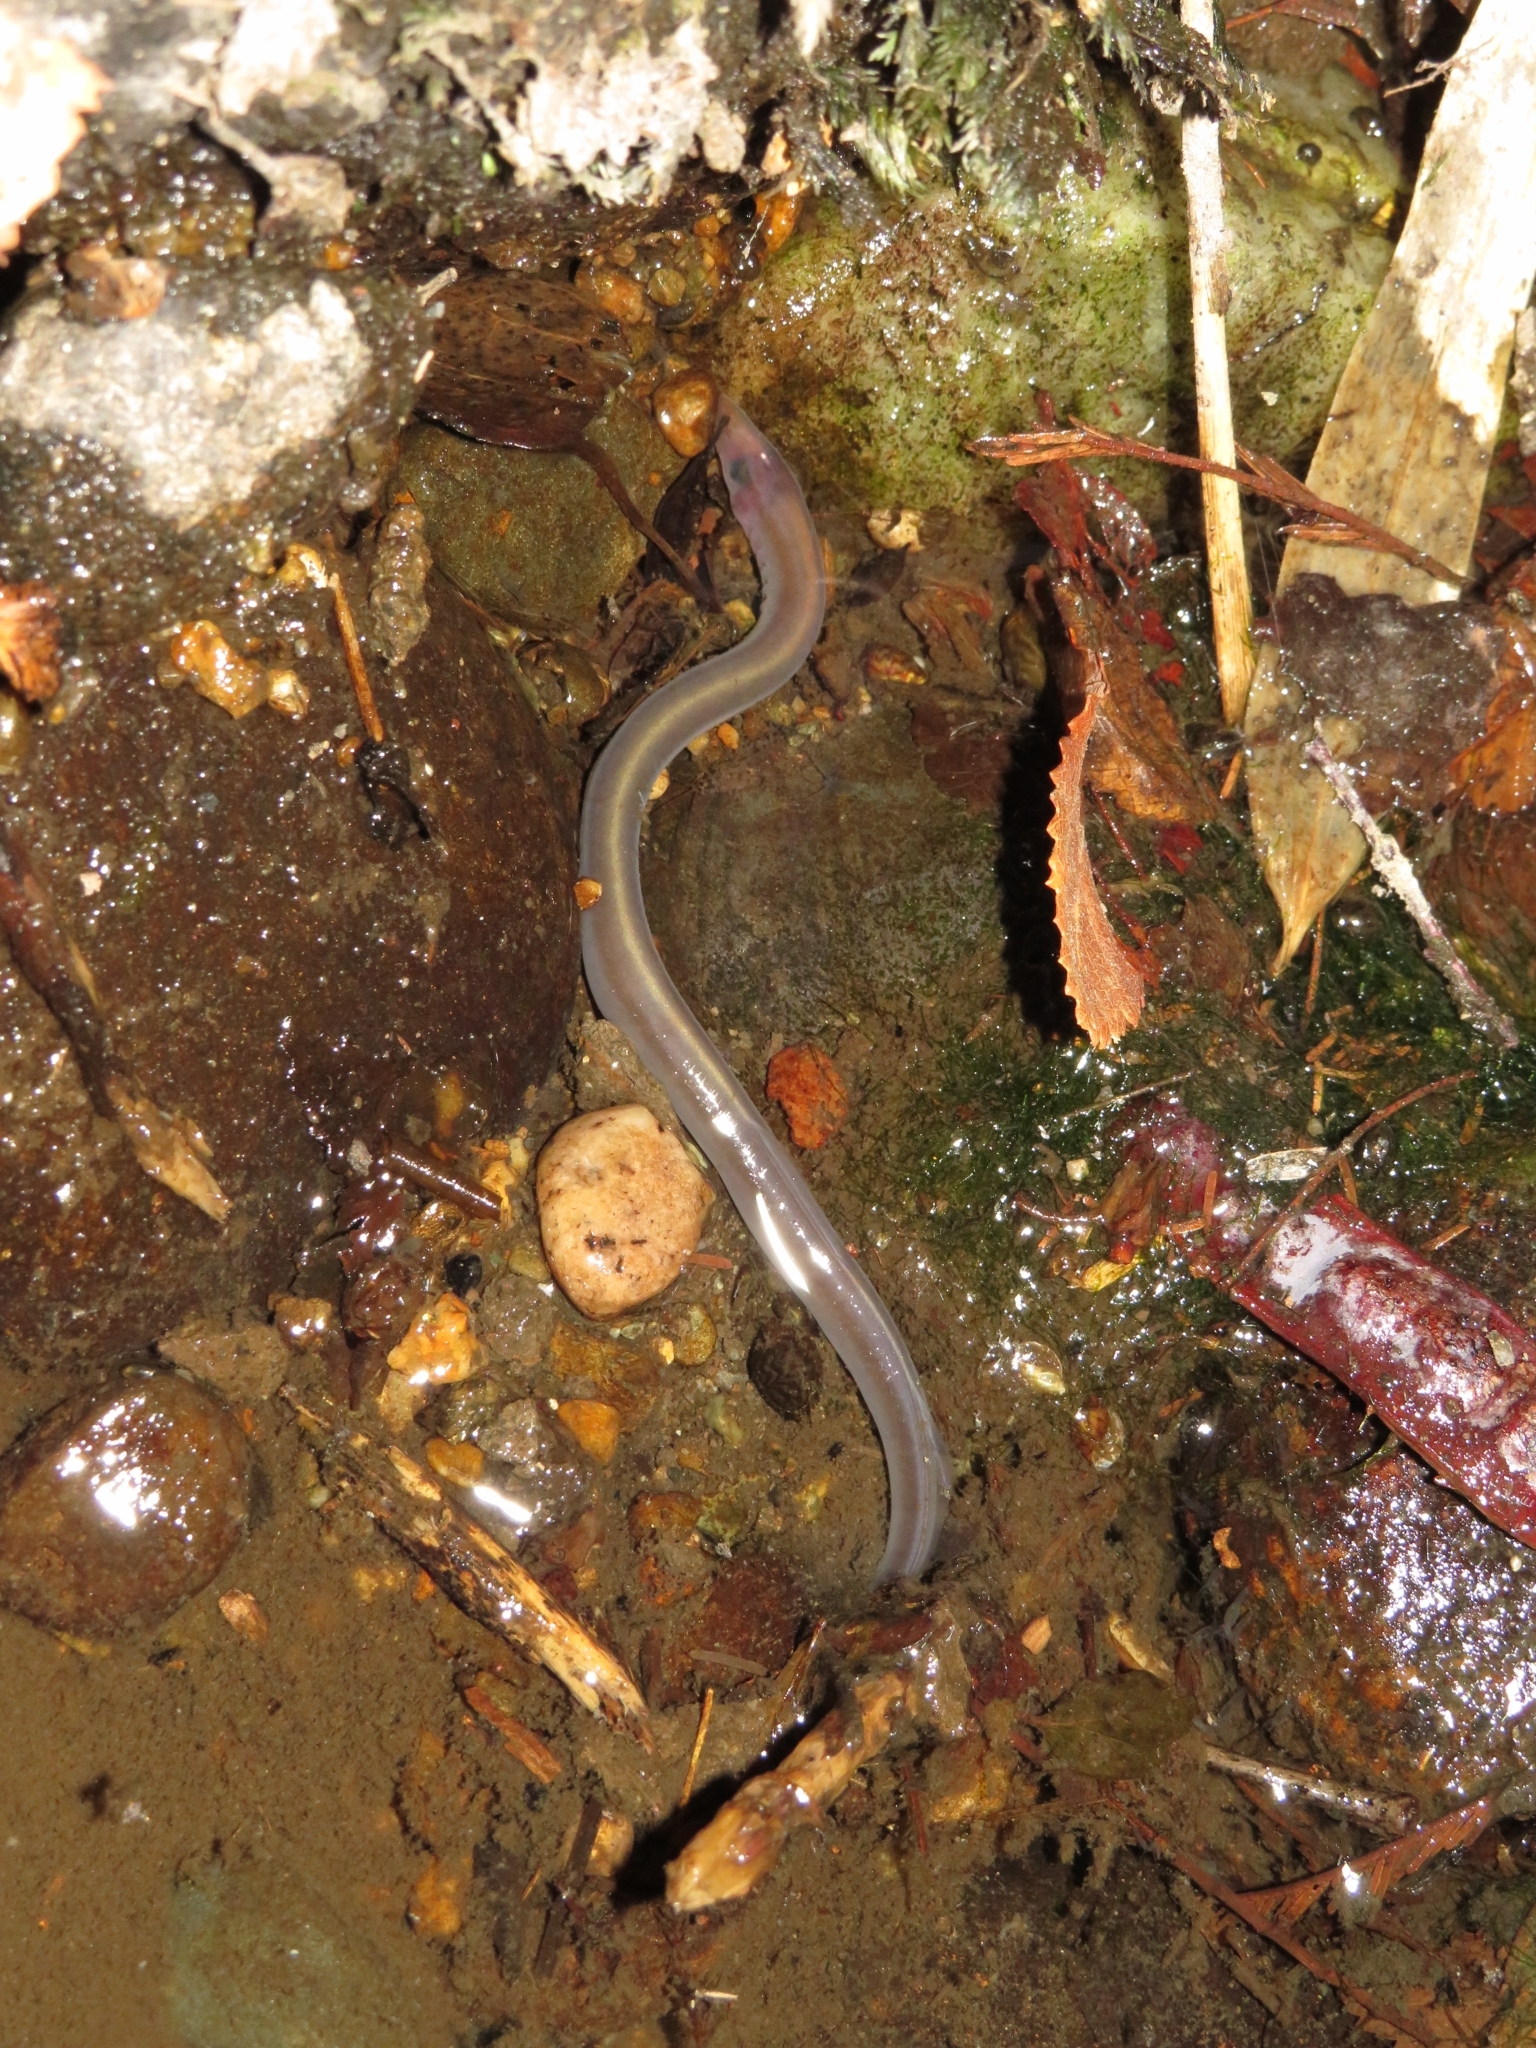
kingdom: Animalia
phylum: Chordata
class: Petromyzonti
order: Petromyzontiformes
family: Geotriidae
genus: Geotria
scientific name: Geotria australis
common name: Pouched lamprey
